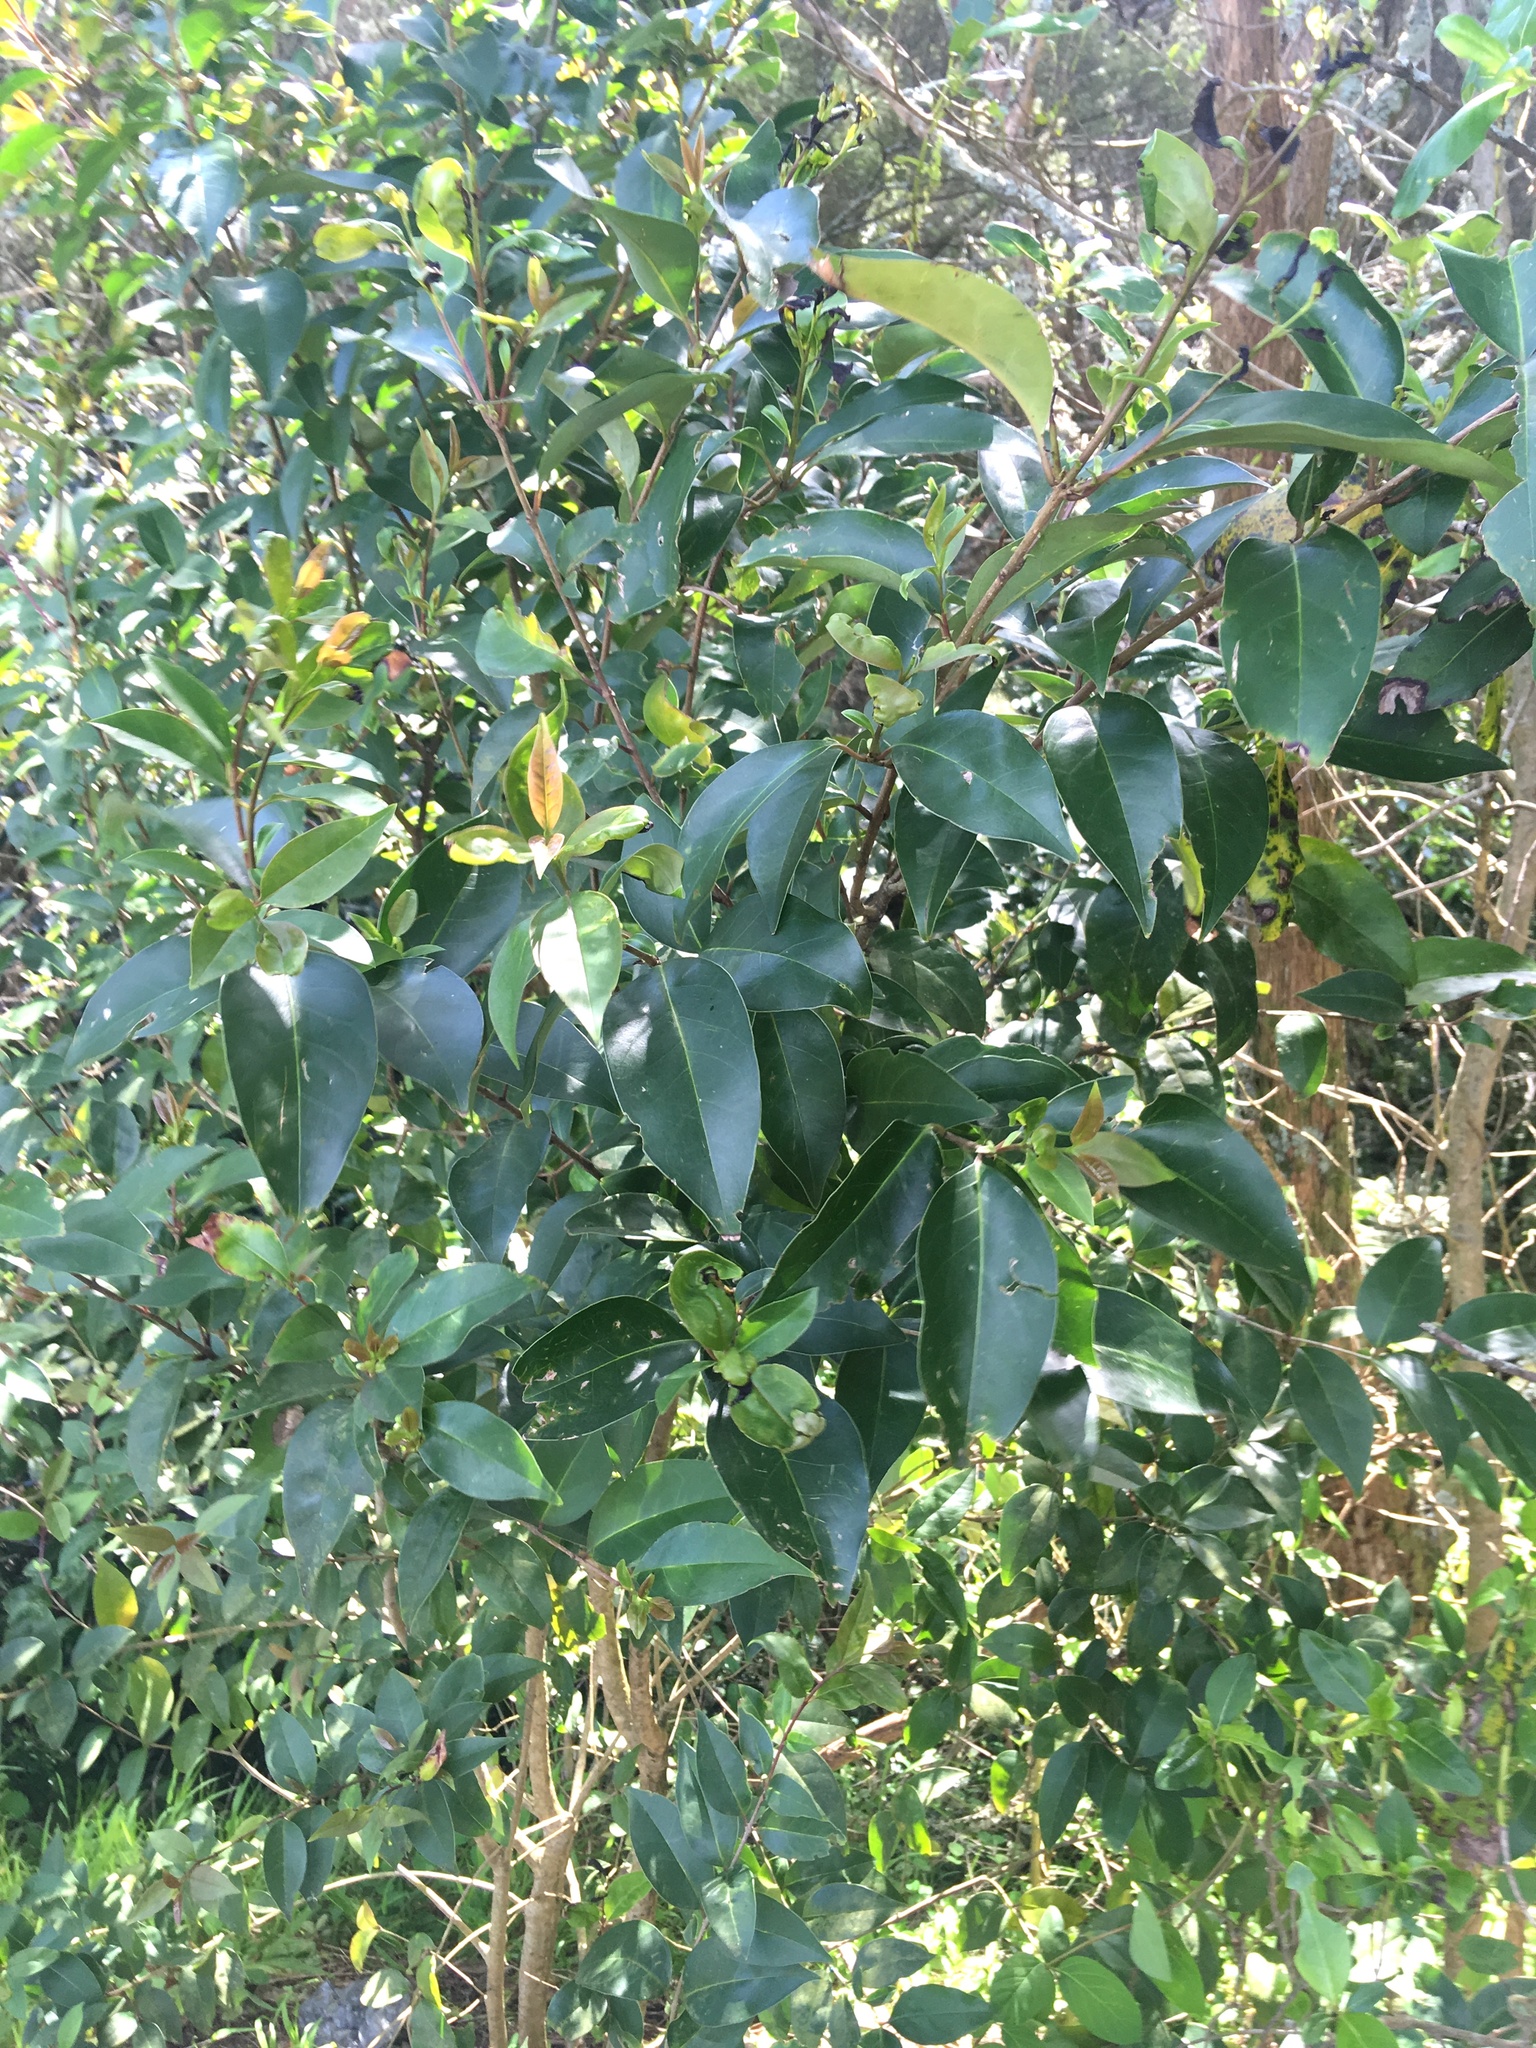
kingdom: Plantae
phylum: Tracheophyta
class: Magnoliopsida
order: Lamiales
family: Oleaceae
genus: Ligustrum
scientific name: Ligustrum lucidum
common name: Glossy privet
